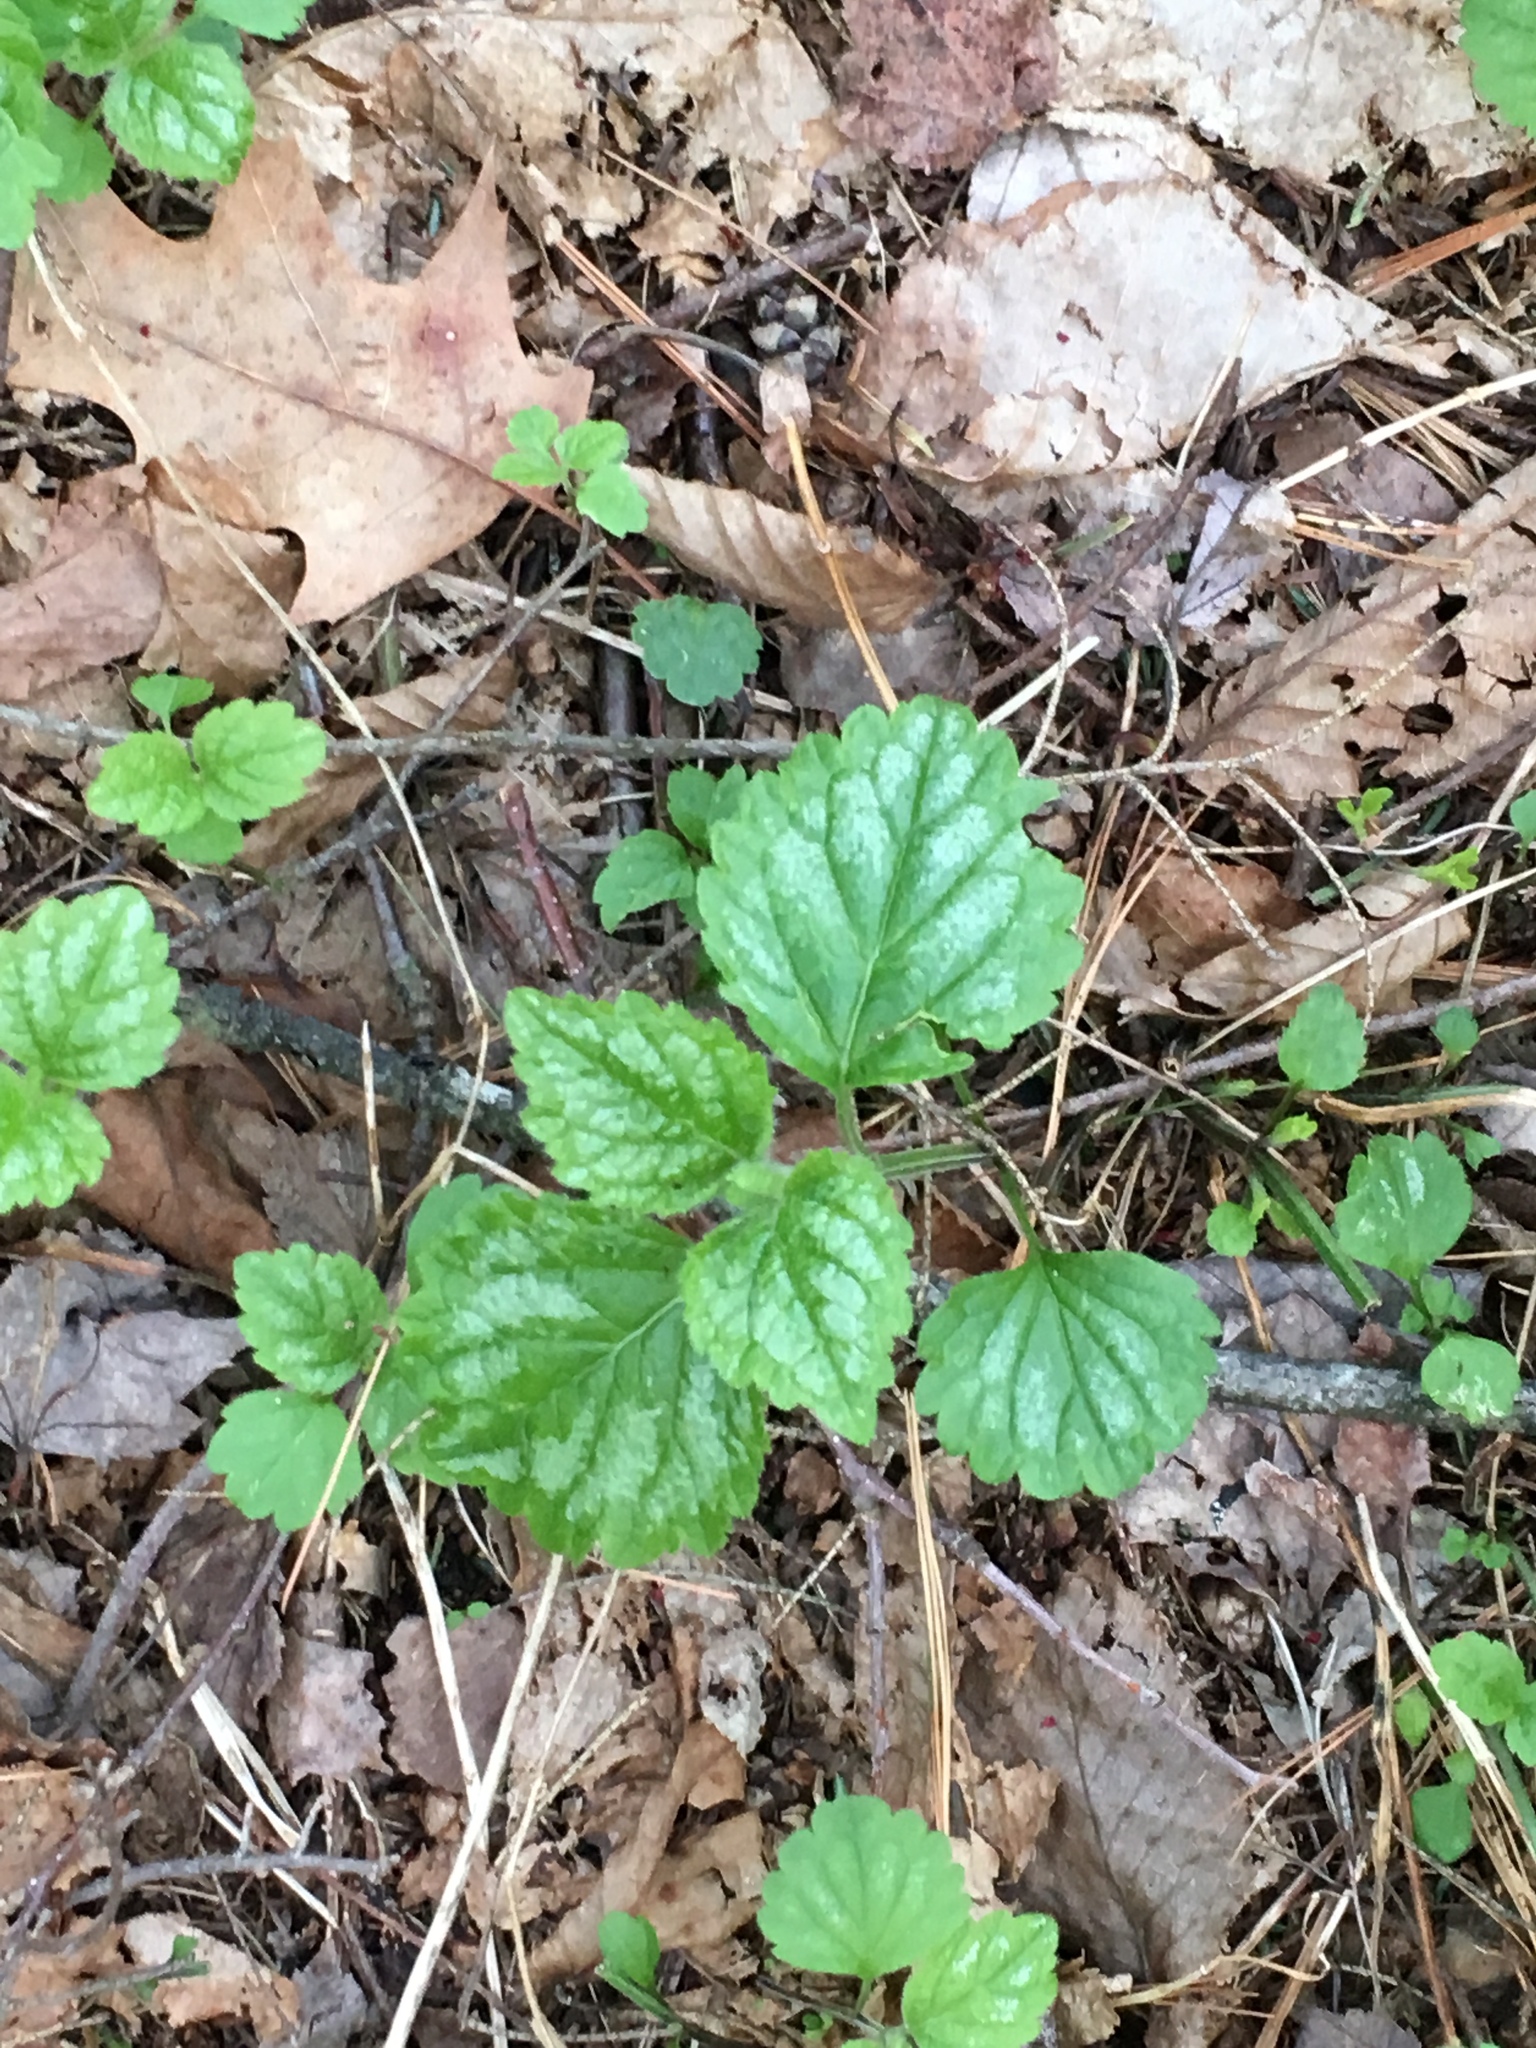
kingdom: Plantae
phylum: Tracheophyta
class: Magnoliopsida
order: Lamiales
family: Lamiaceae
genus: Lamium
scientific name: Lamium galeobdolon
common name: Yellow archangel
